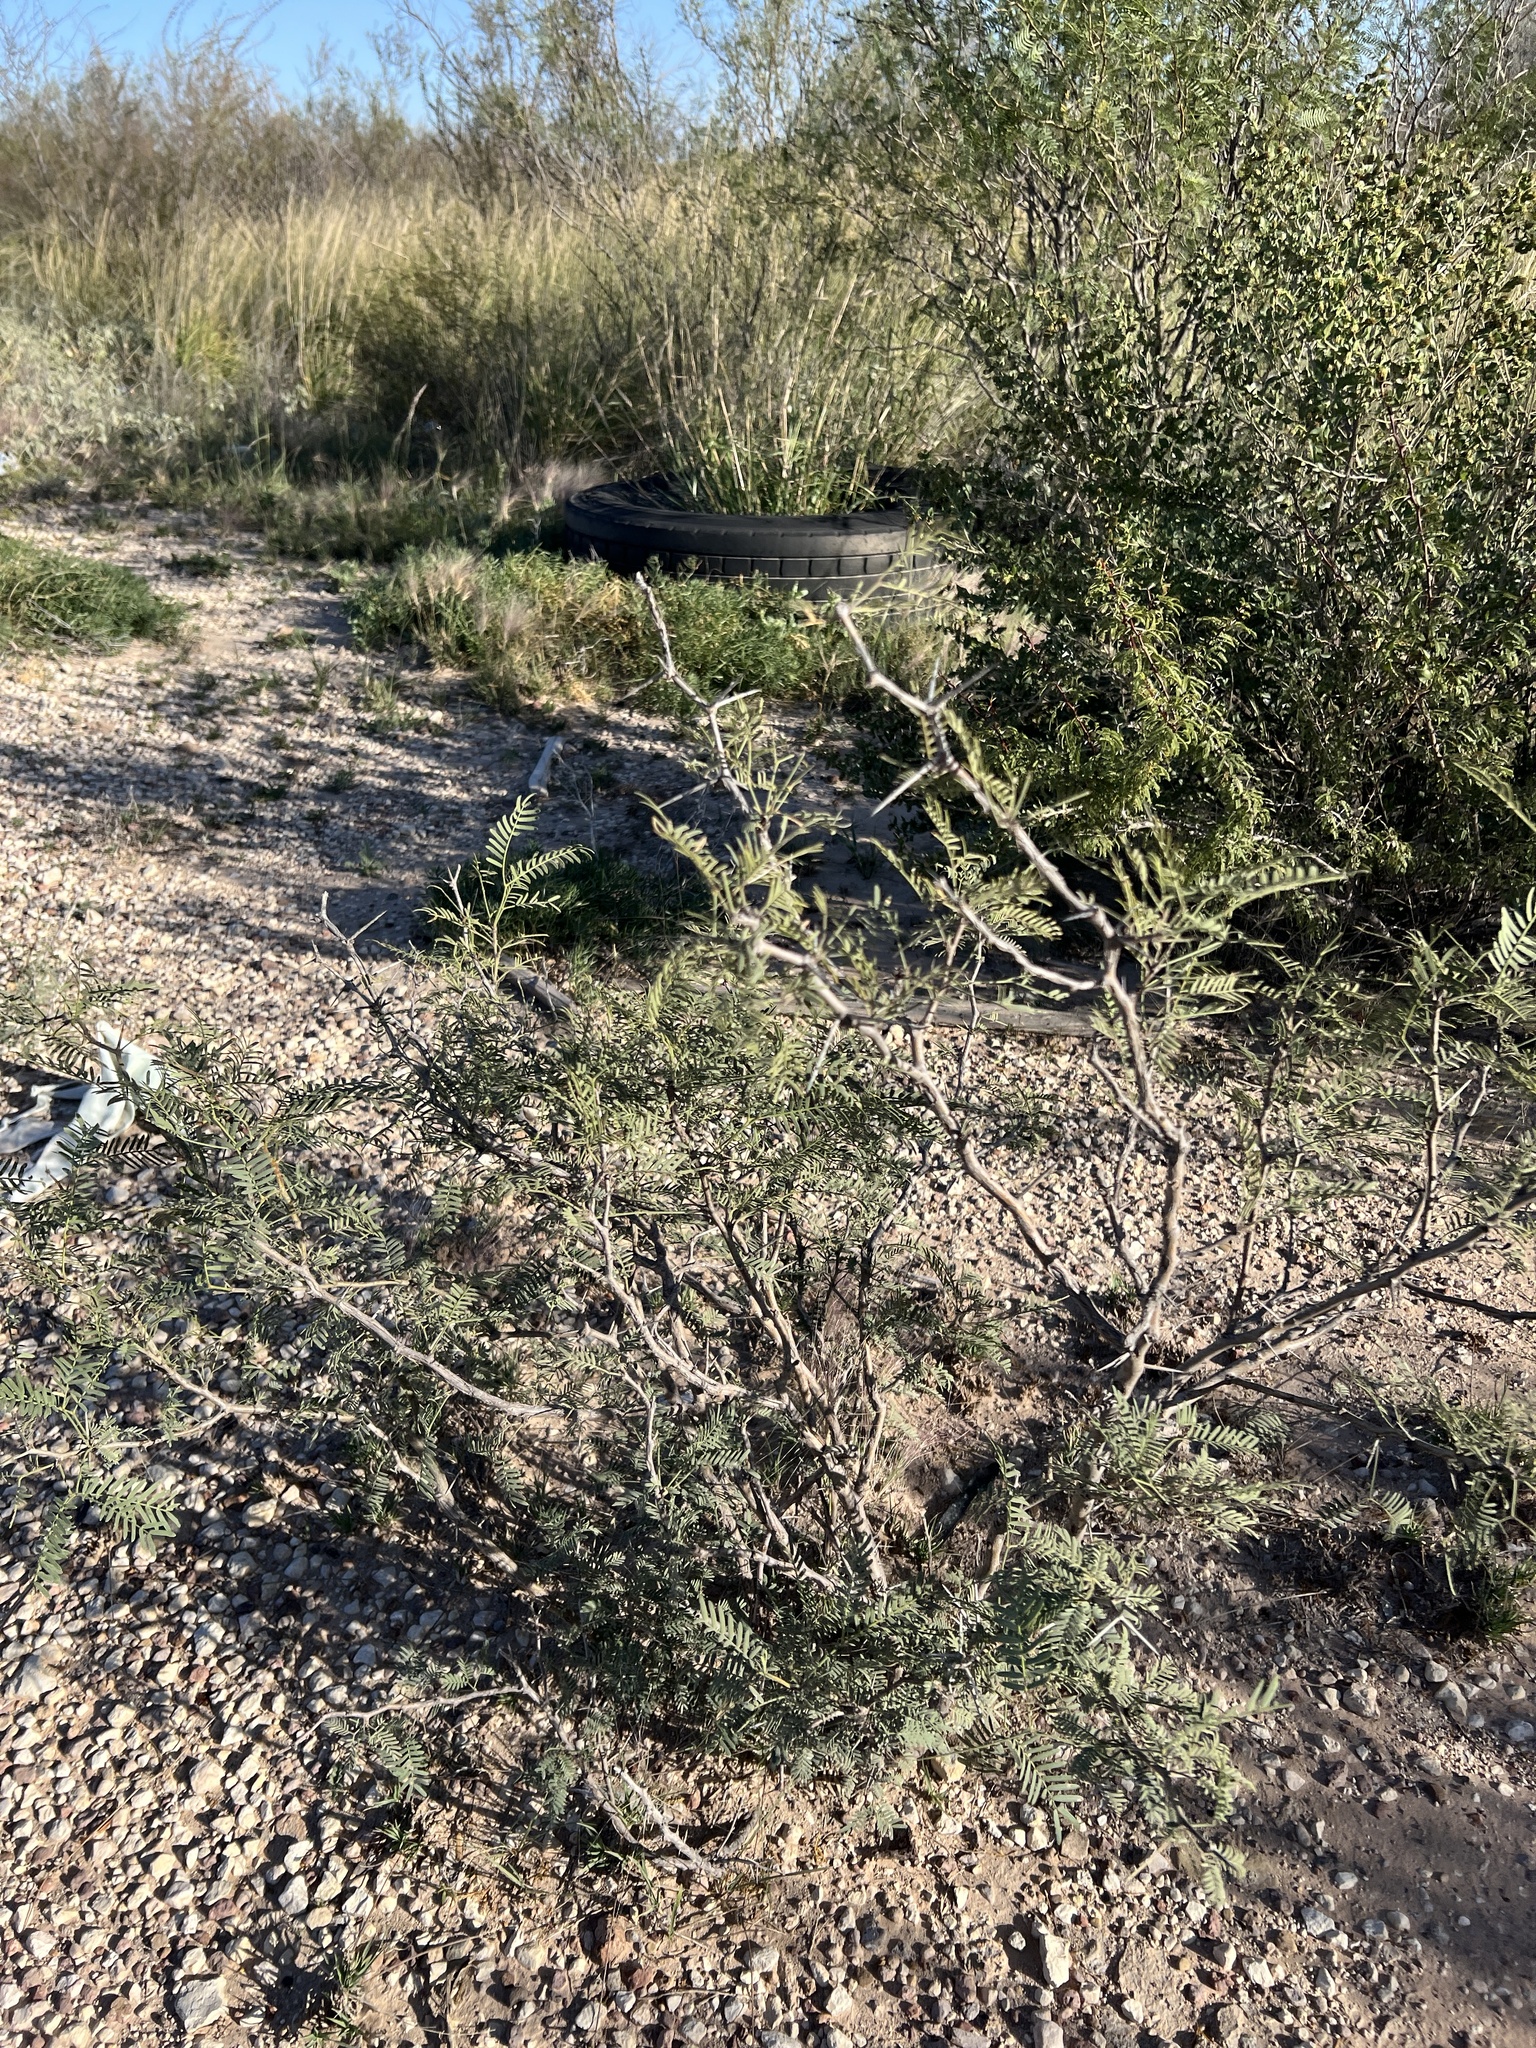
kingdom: Plantae
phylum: Tracheophyta
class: Magnoliopsida
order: Fabales
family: Fabaceae
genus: Prosopis
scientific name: Prosopis glandulosa
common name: Honey mesquite
